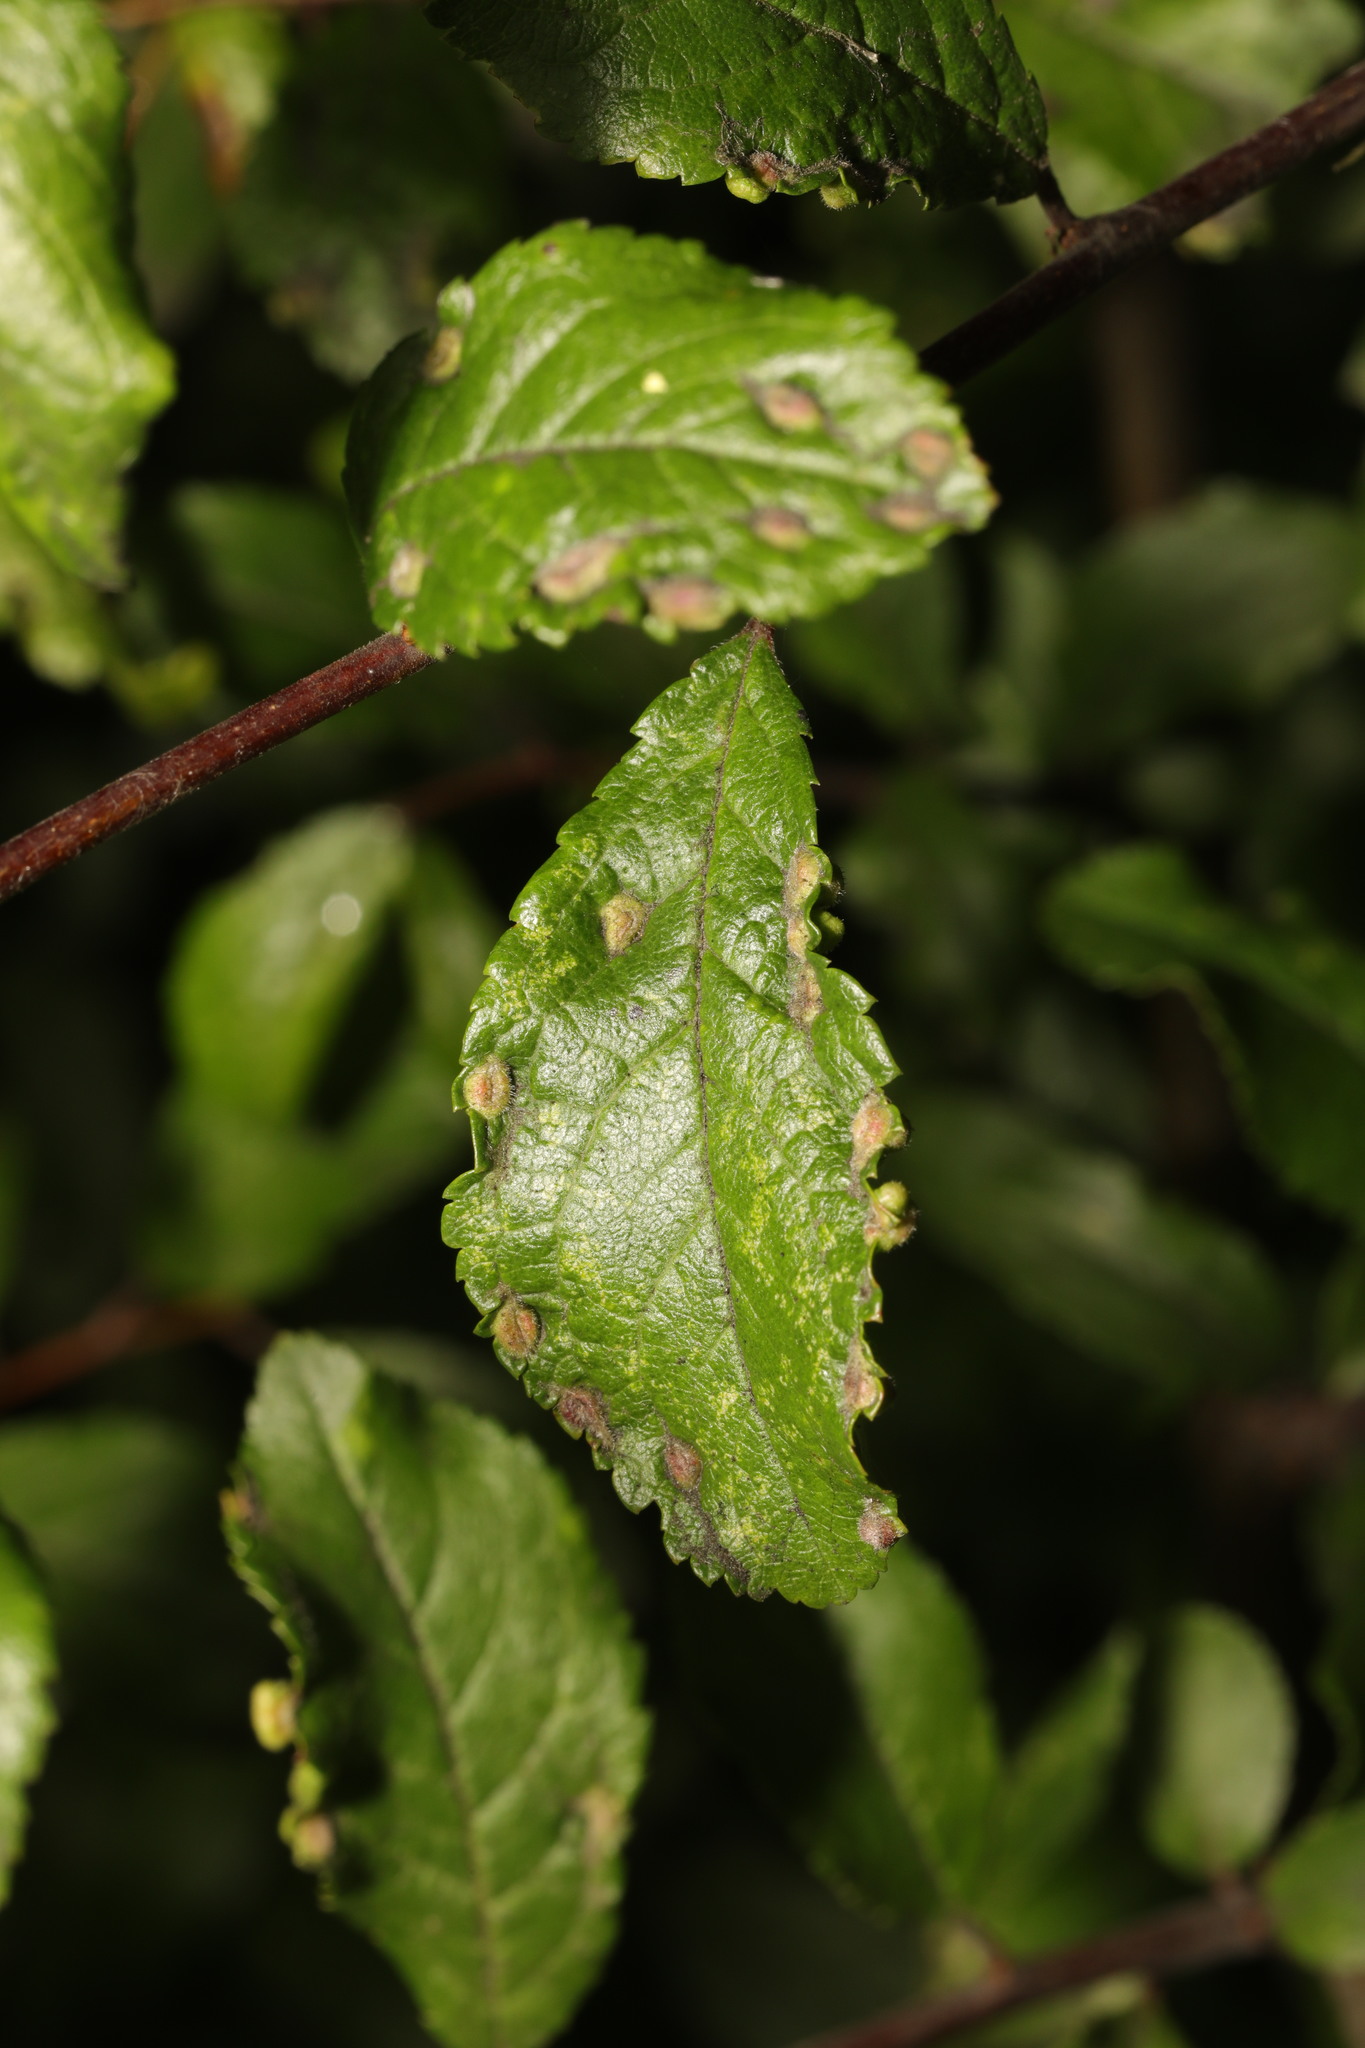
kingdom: Animalia
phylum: Arthropoda
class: Arachnida
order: Trombidiformes
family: Eriophyidae
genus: Eriophyes
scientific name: Eriophyes similis
